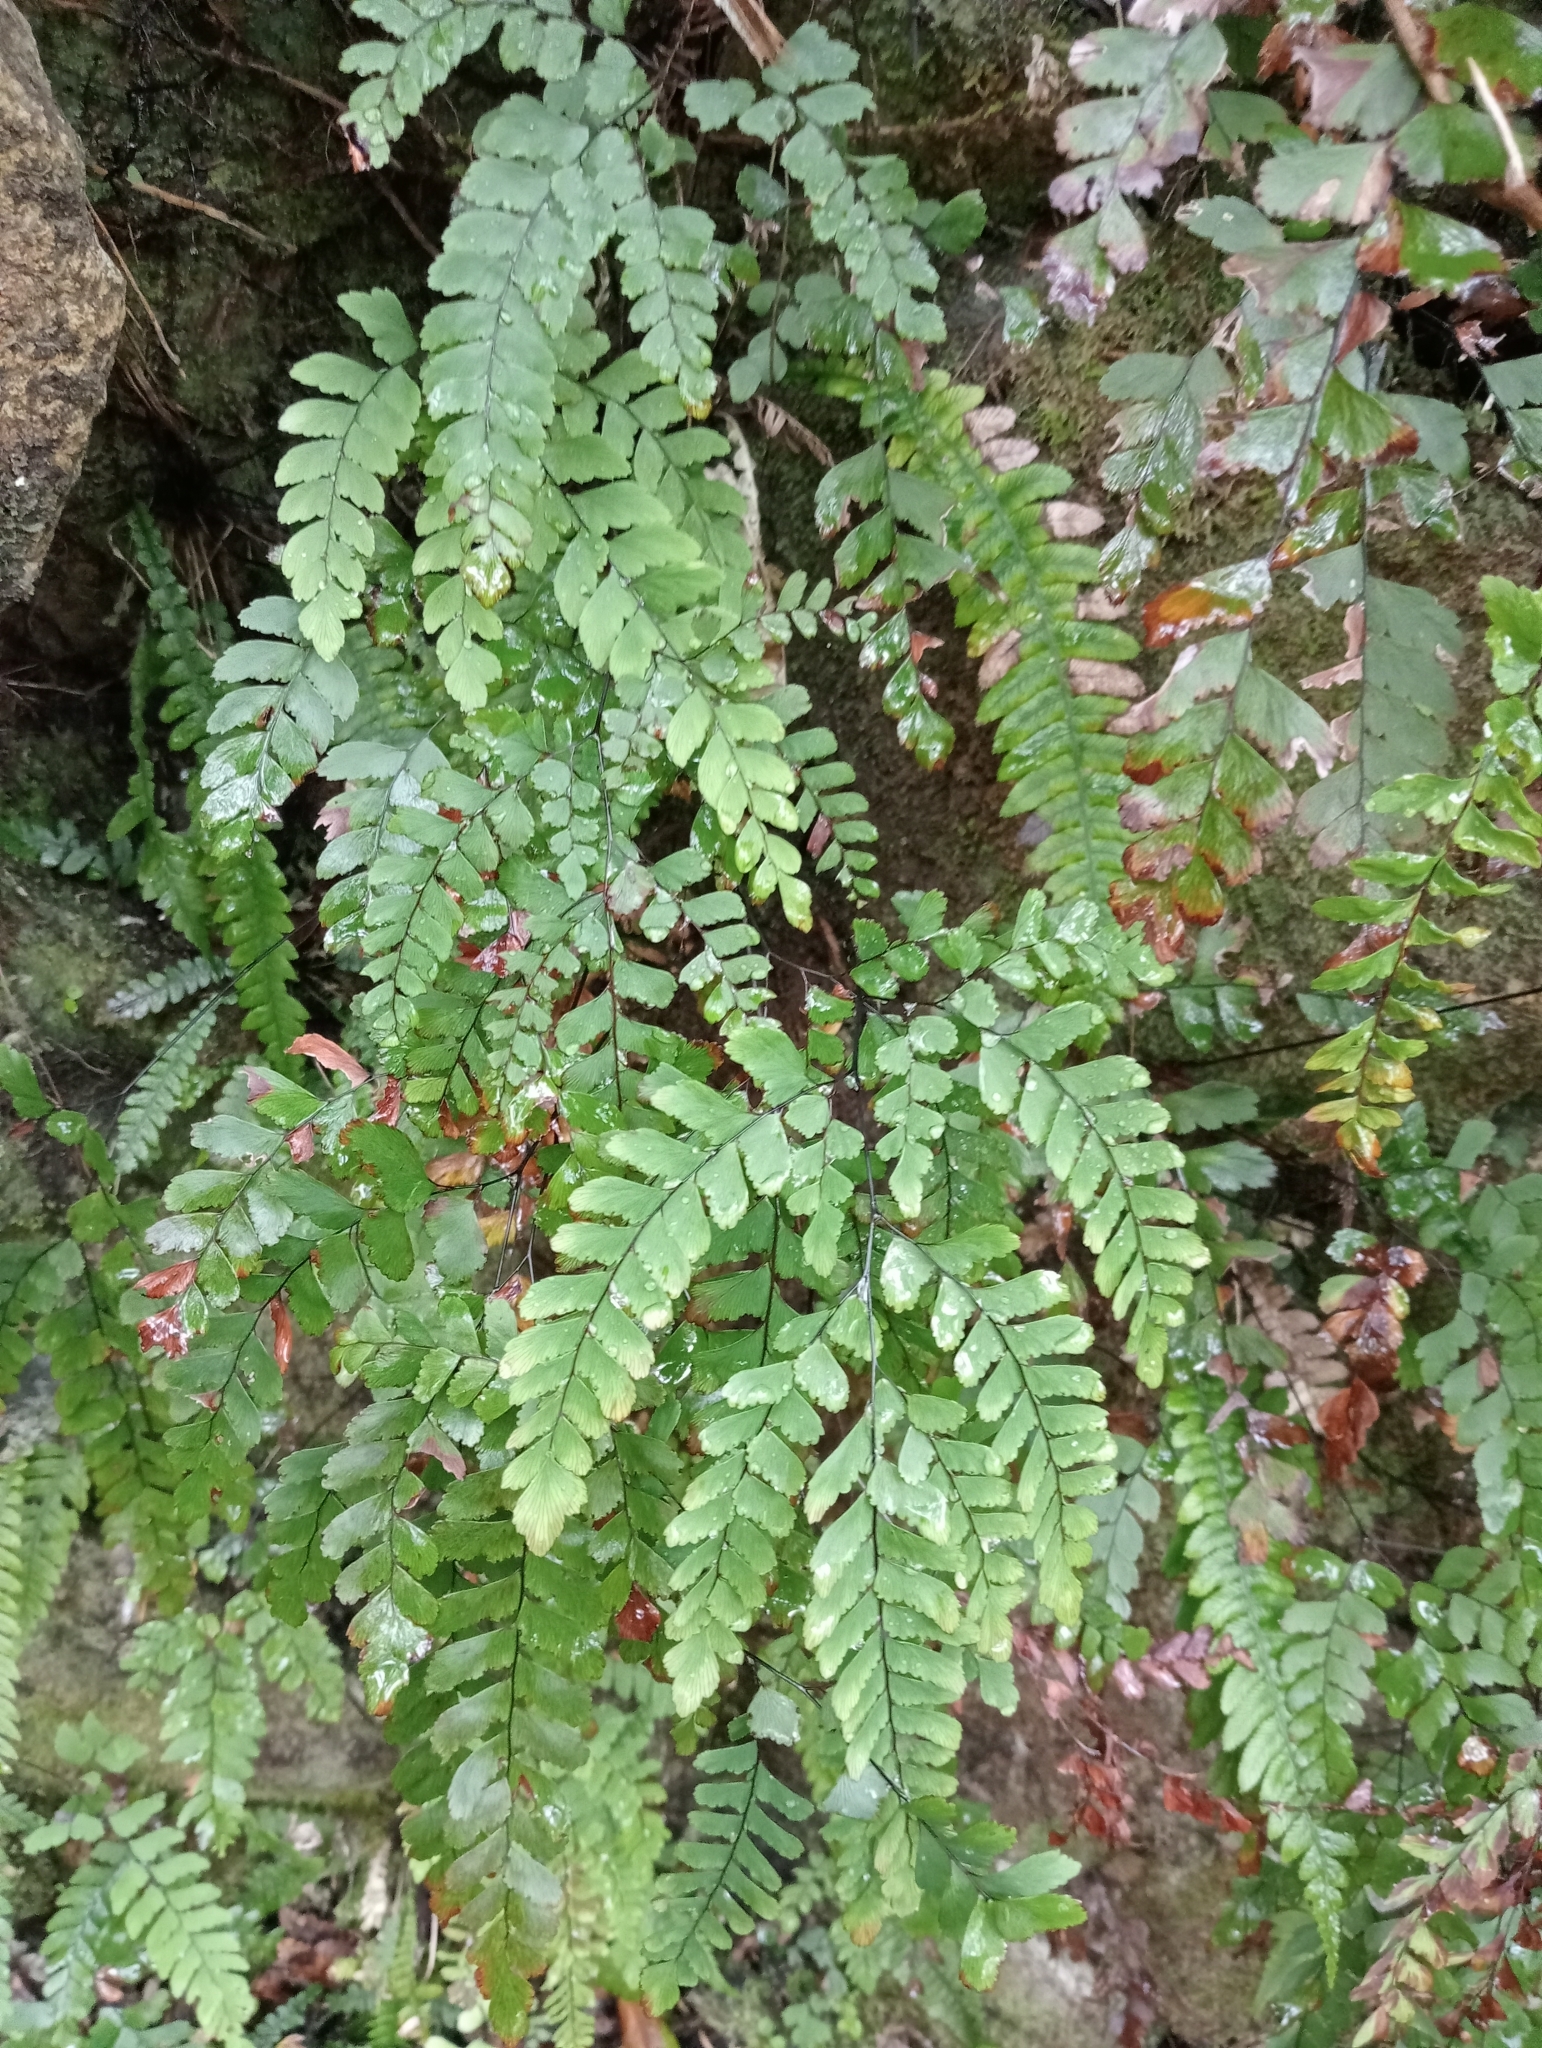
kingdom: Plantae
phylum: Tracheophyta
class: Polypodiopsida
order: Polypodiales
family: Pteridaceae
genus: Adiantum
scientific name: Adiantum cunninghamii
